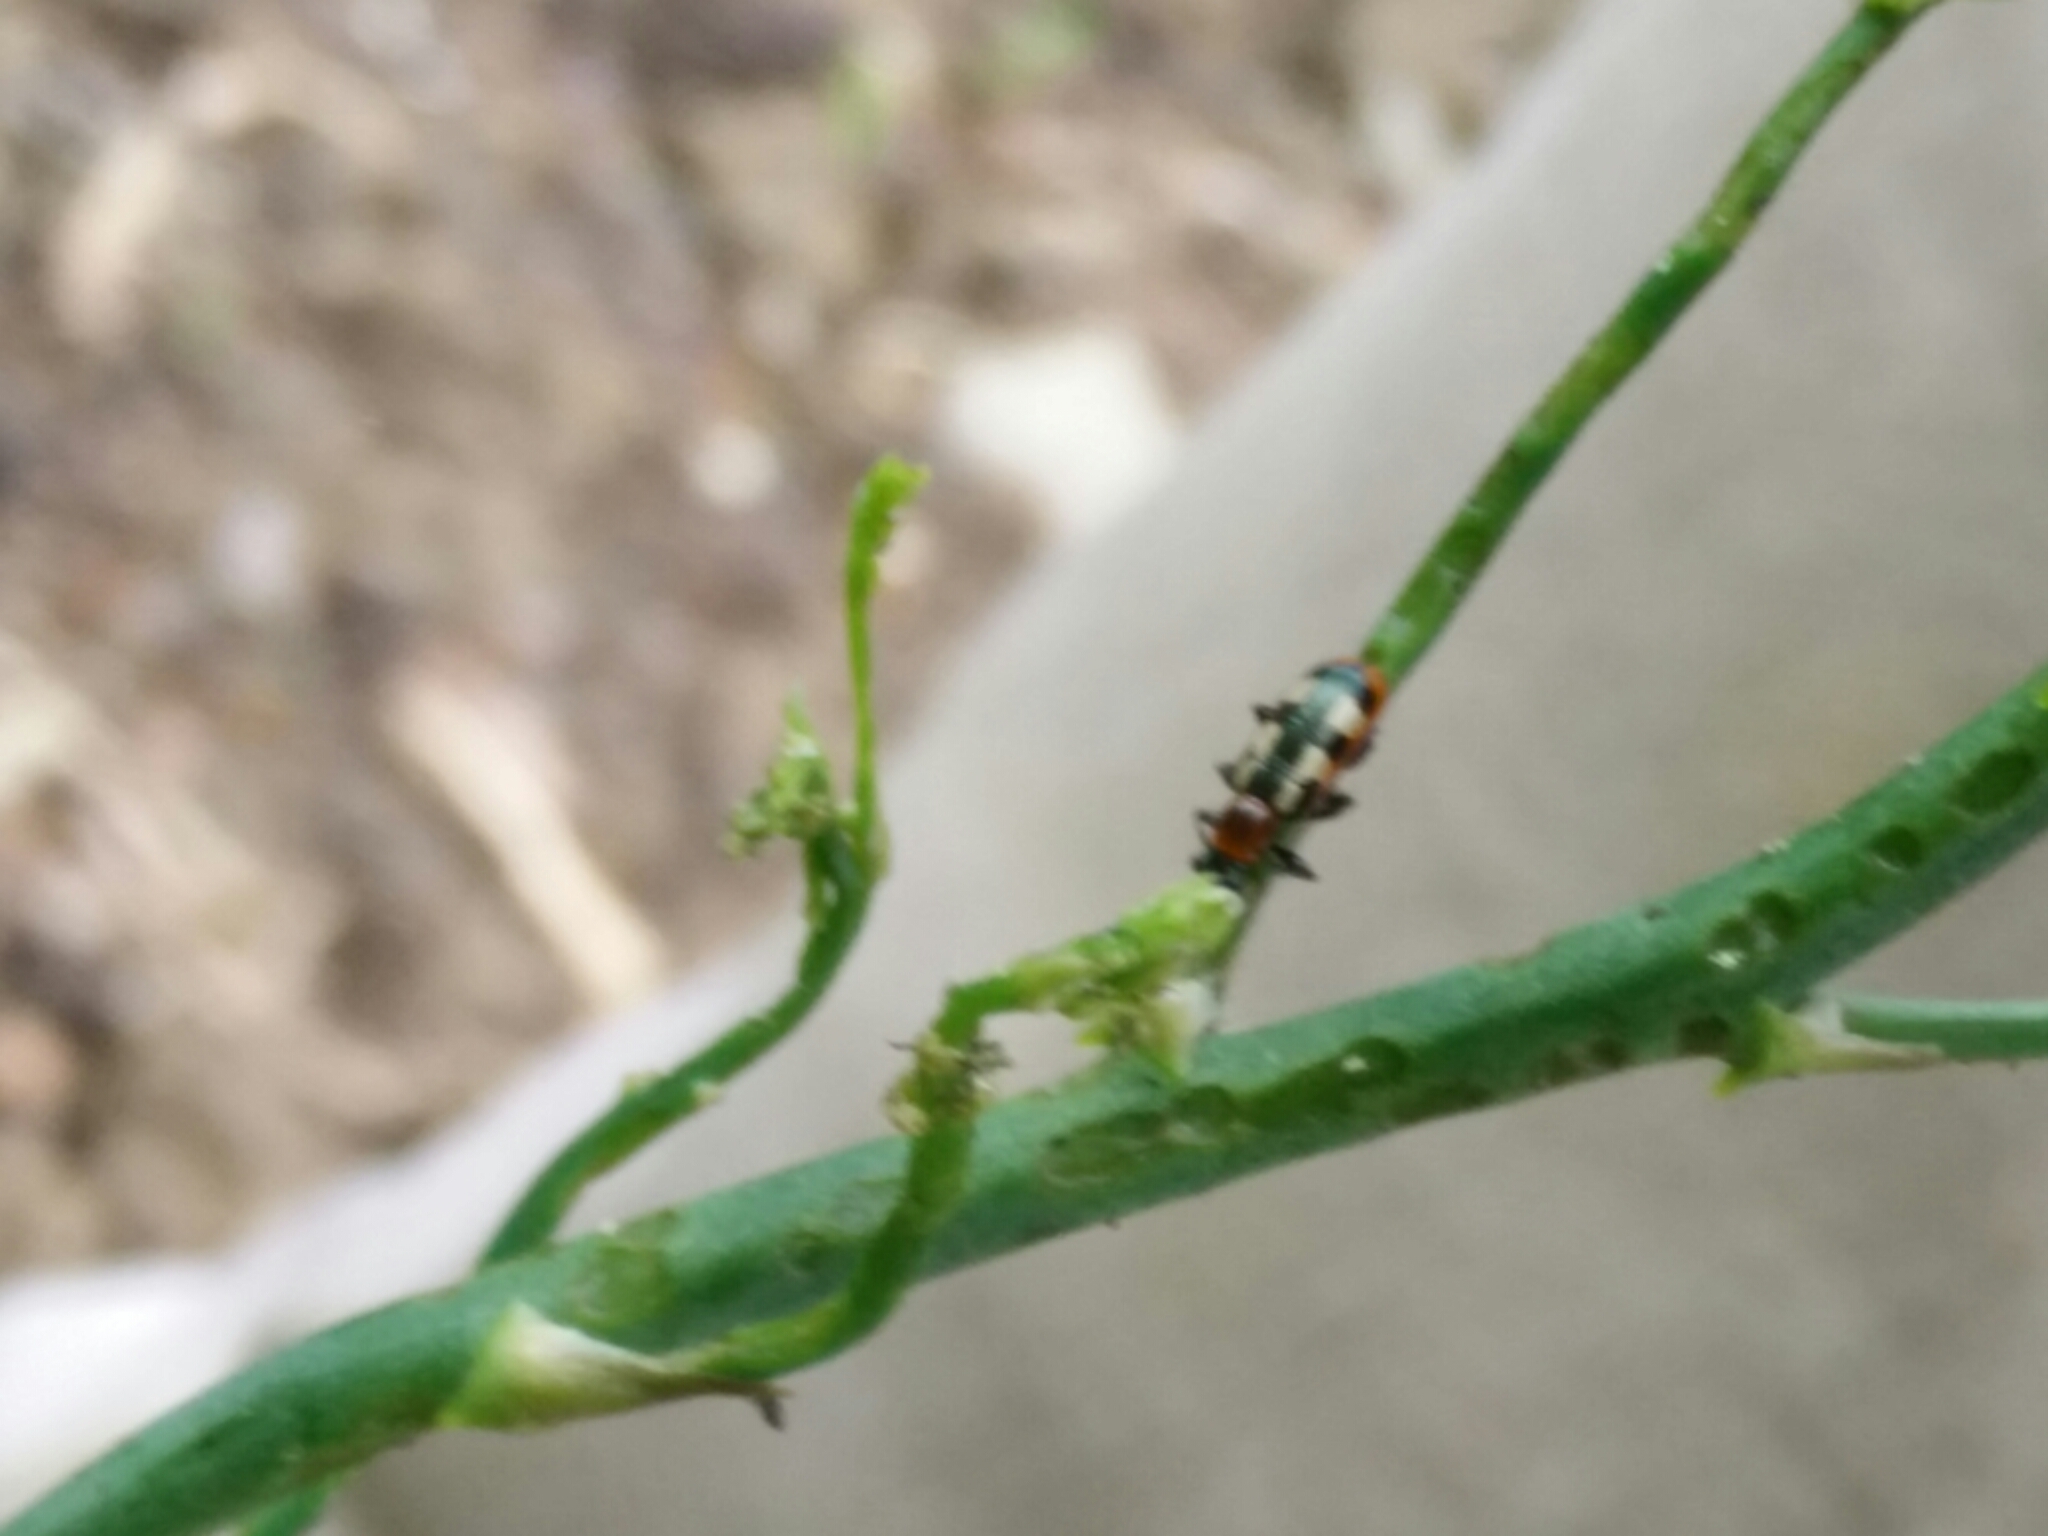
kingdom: Animalia
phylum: Arthropoda
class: Insecta
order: Coleoptera
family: Chrysomelidae
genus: Crioceris
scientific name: Crioceris asparagi
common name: Asparagus beetle
